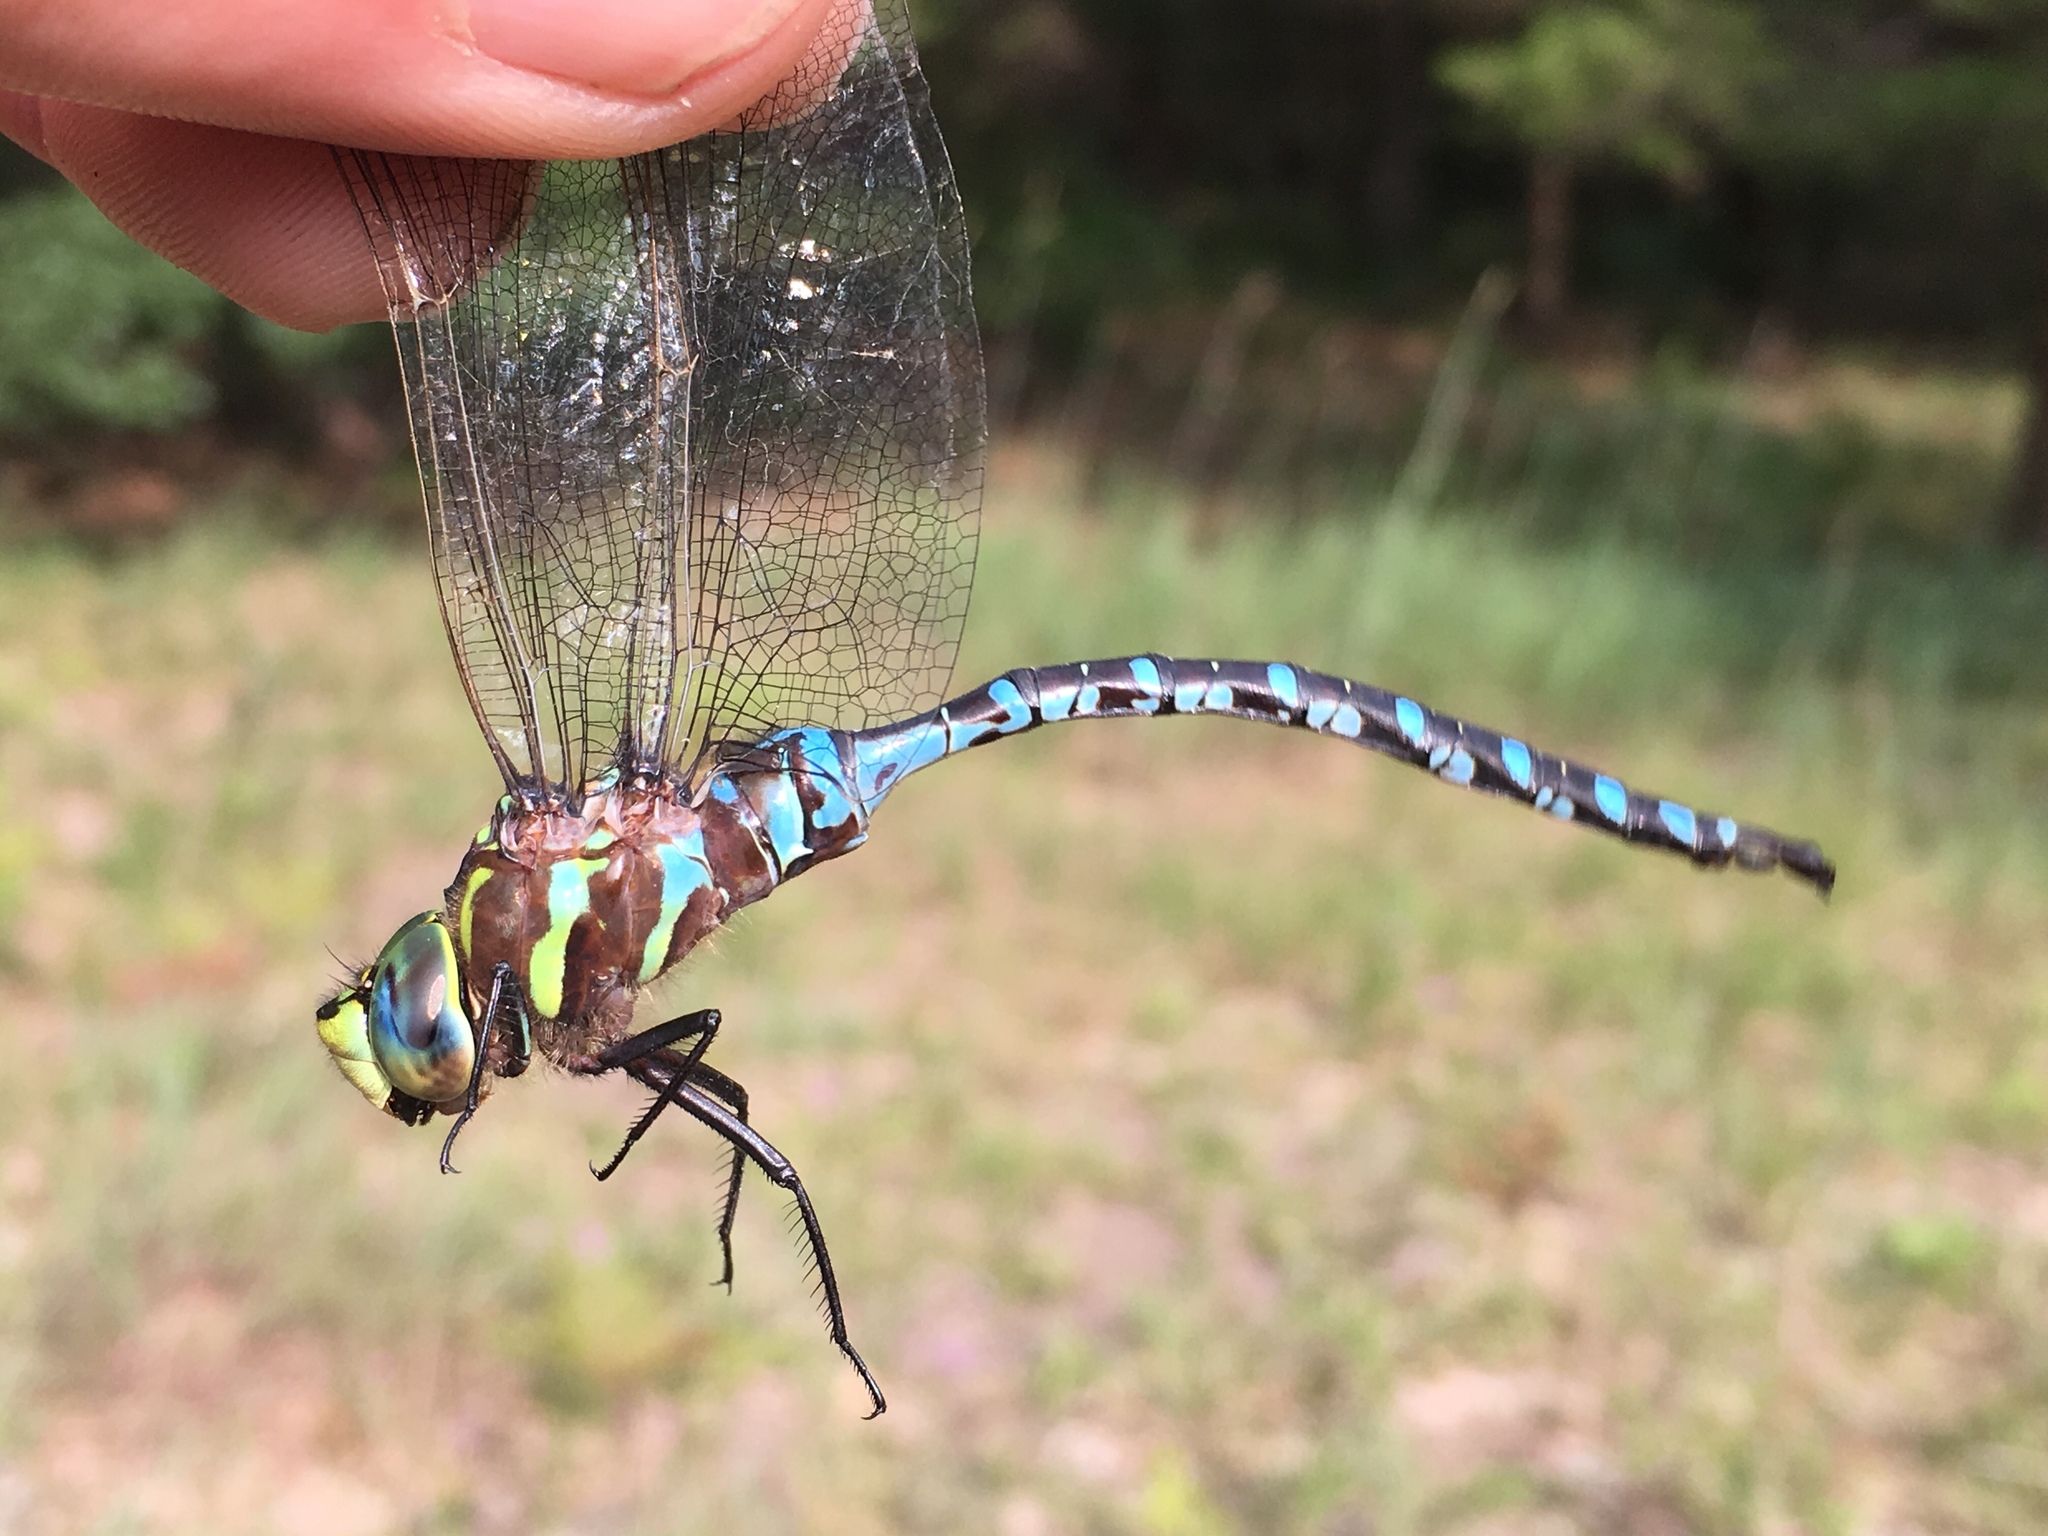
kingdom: Animalia
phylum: Arthropoda
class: Insecta
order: Odonata
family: Aeshnidae
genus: Aeshna
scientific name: Aeshna constricta
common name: Lance-tipped darner
